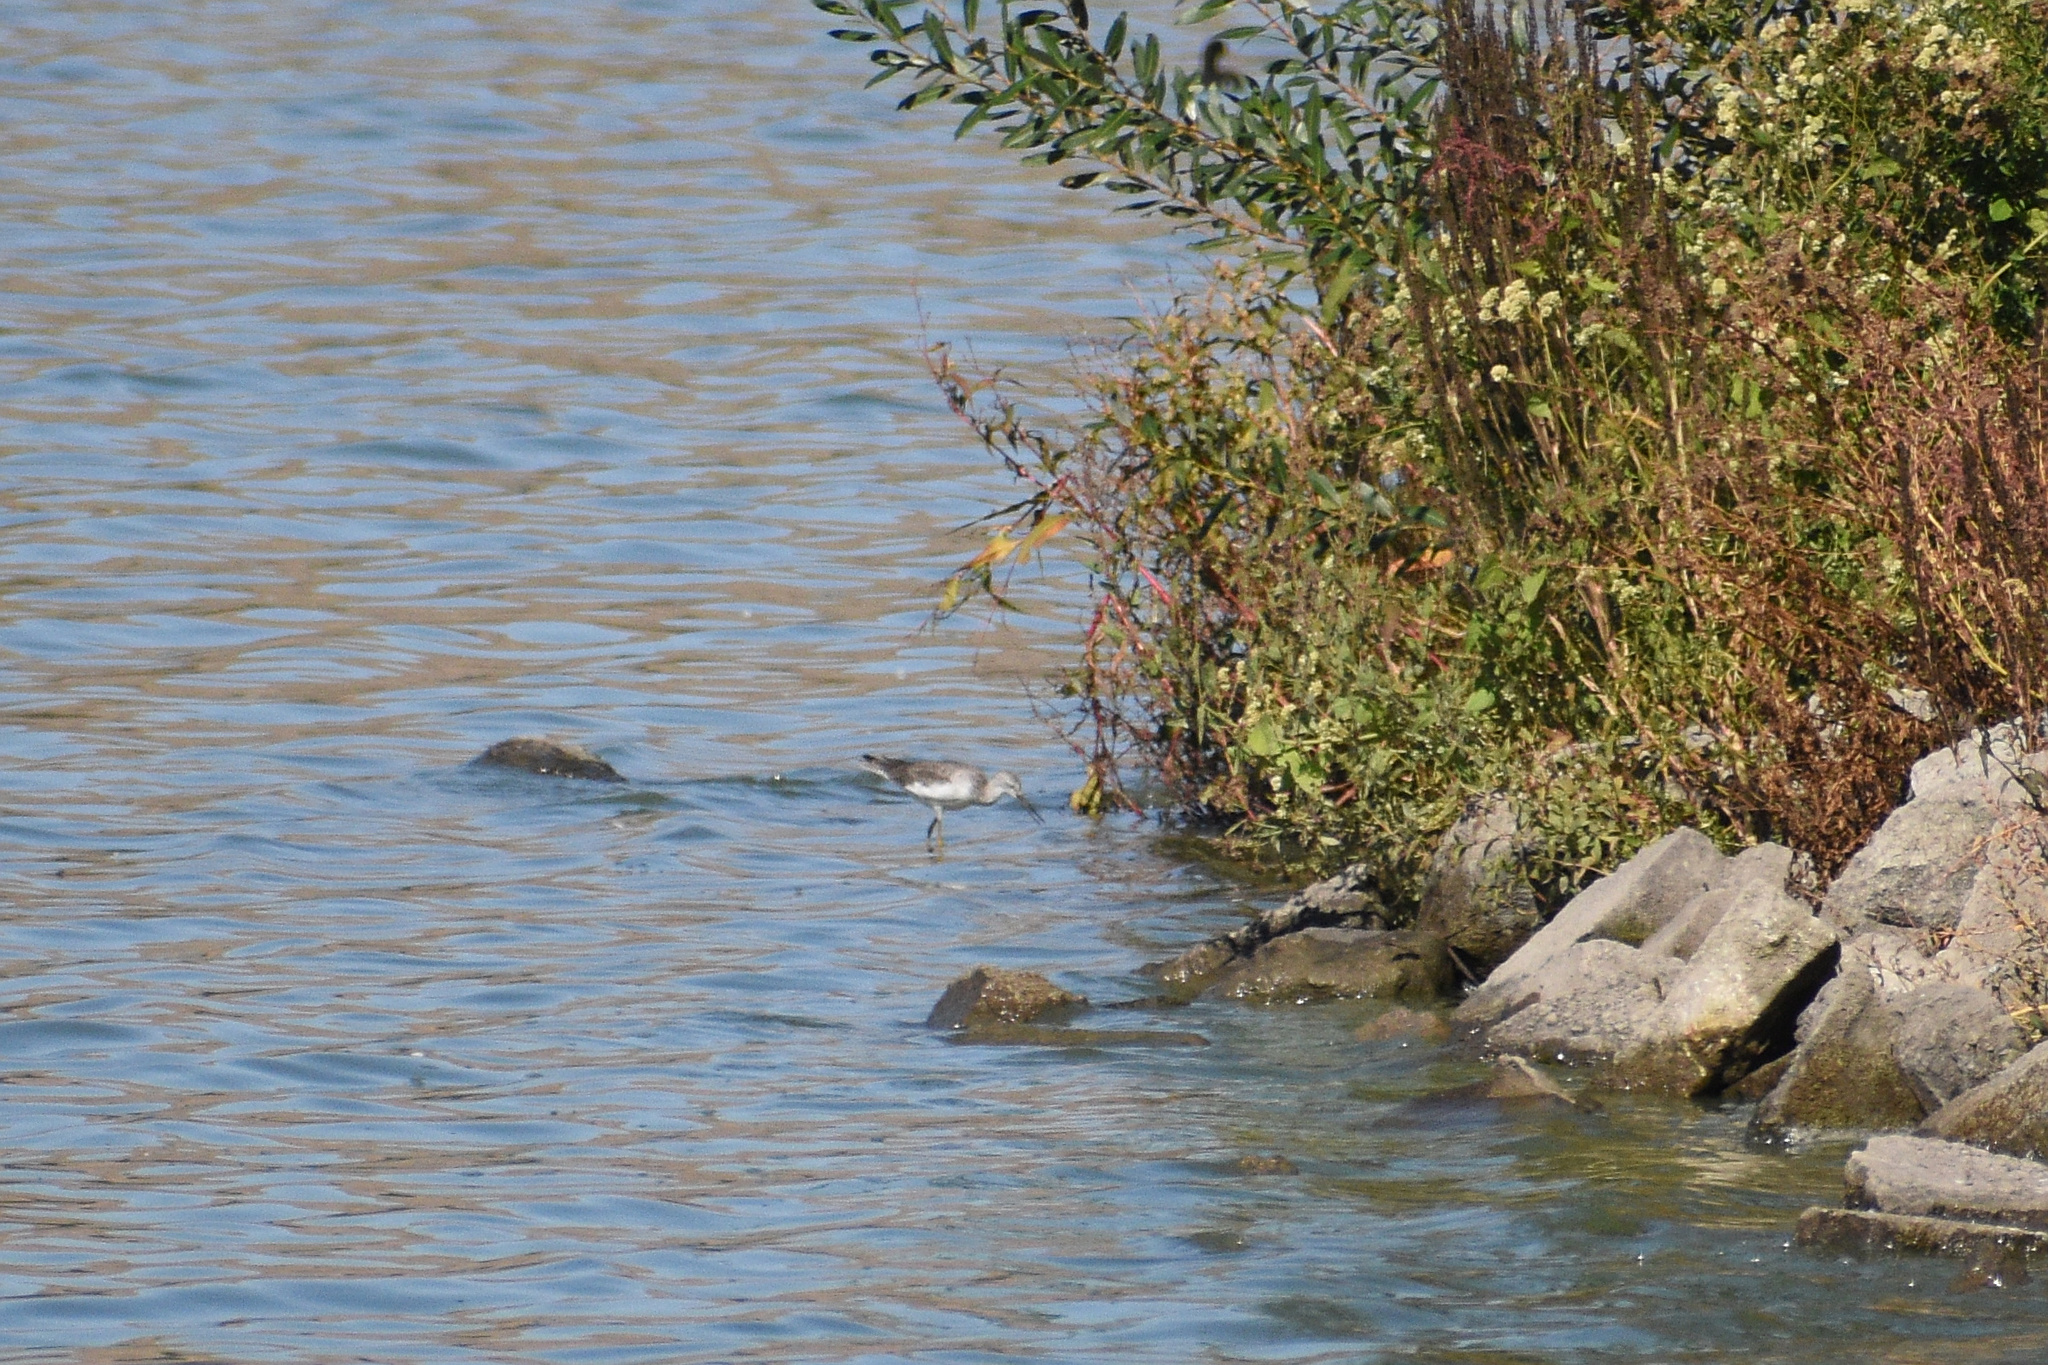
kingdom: Animalia
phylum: Chordata
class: Aves
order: Charadriiformes
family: Scolopacidae
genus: Tringa
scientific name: Tringa melanoleuca
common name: Greater yellowlegs
